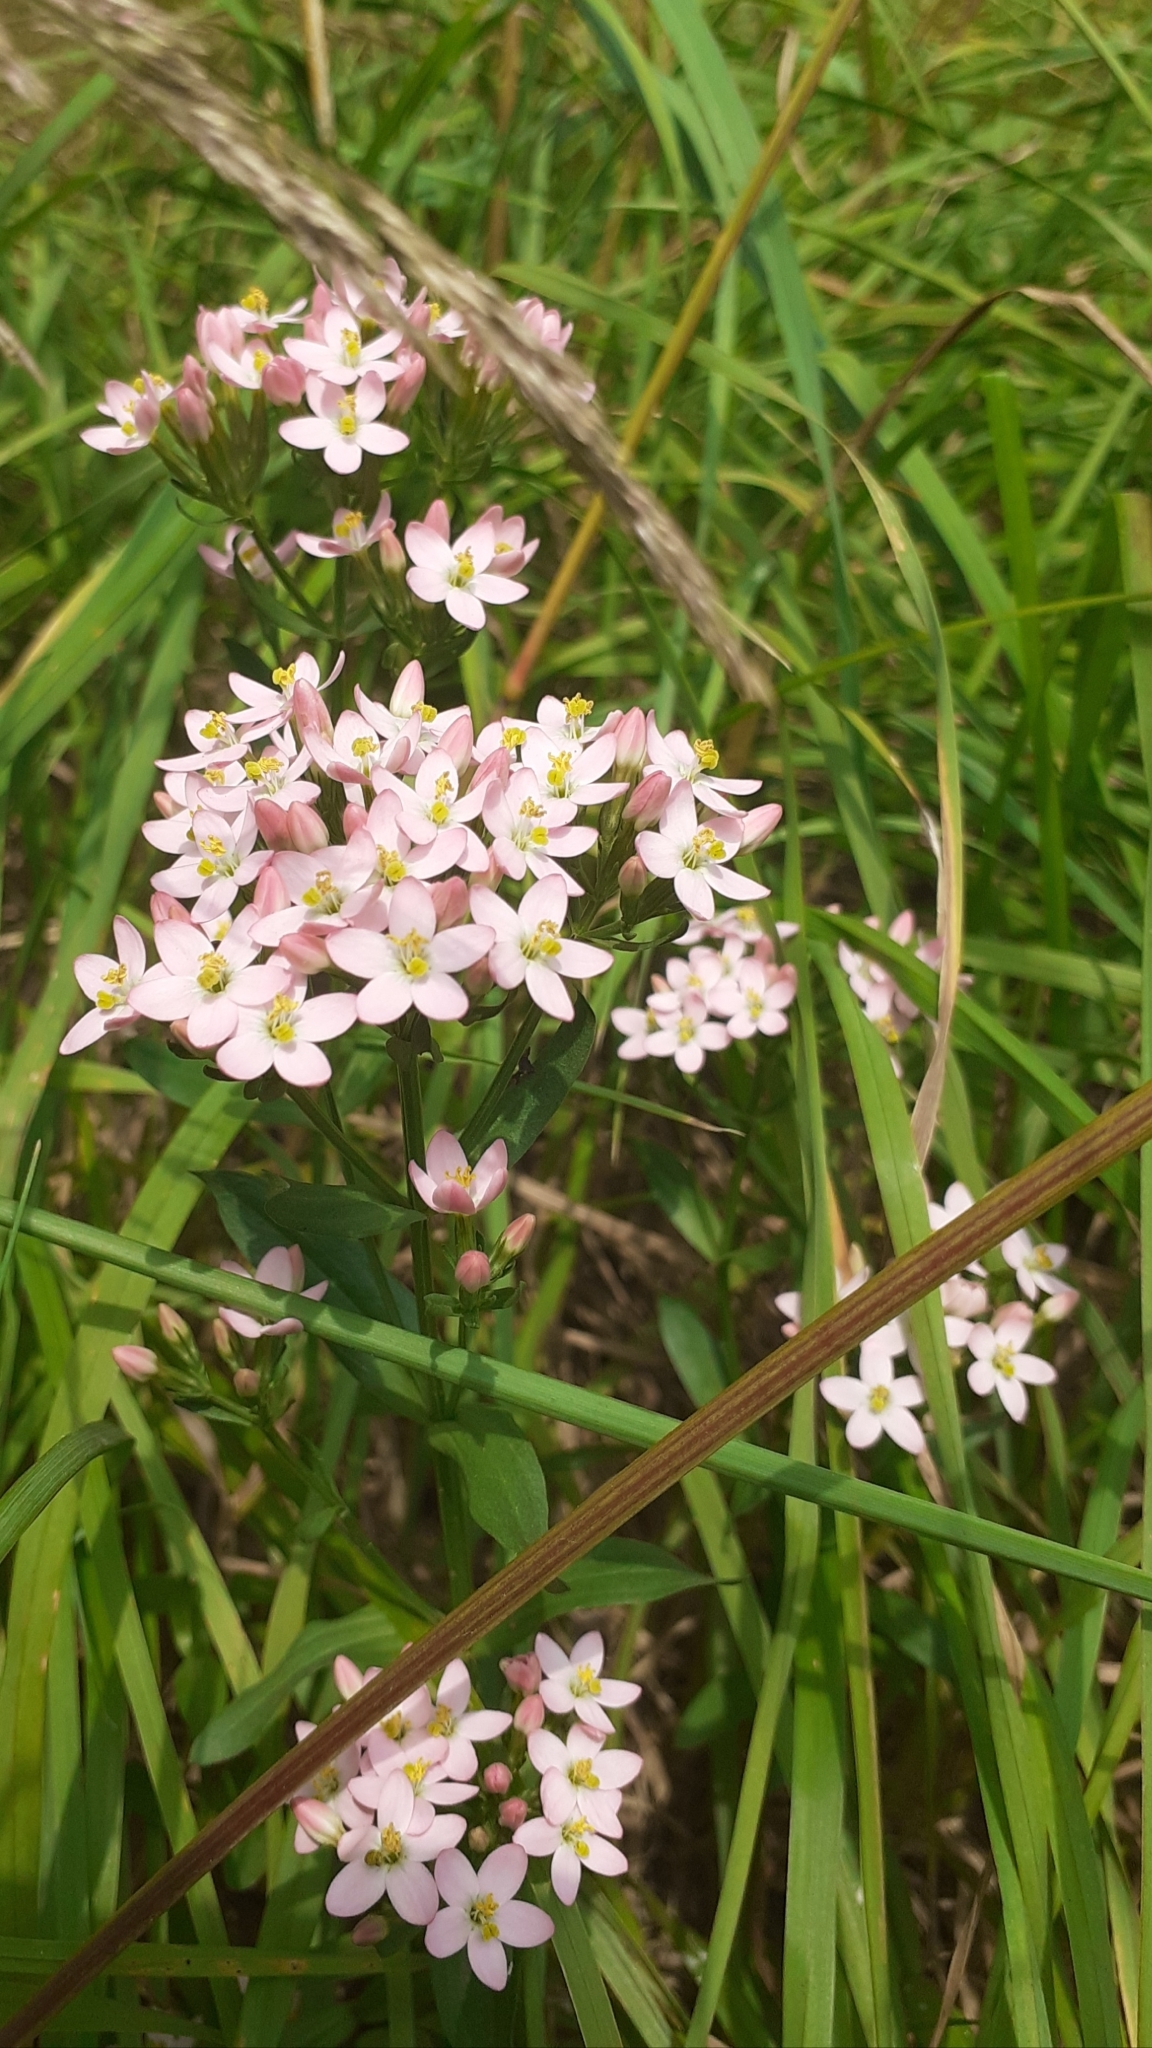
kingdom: Plantae
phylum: Tracheophyta
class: Magnoliopsida
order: Gentianales
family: Gentianaceae
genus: Centaurium
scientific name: Centaurium erythraea
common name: Common centaury
